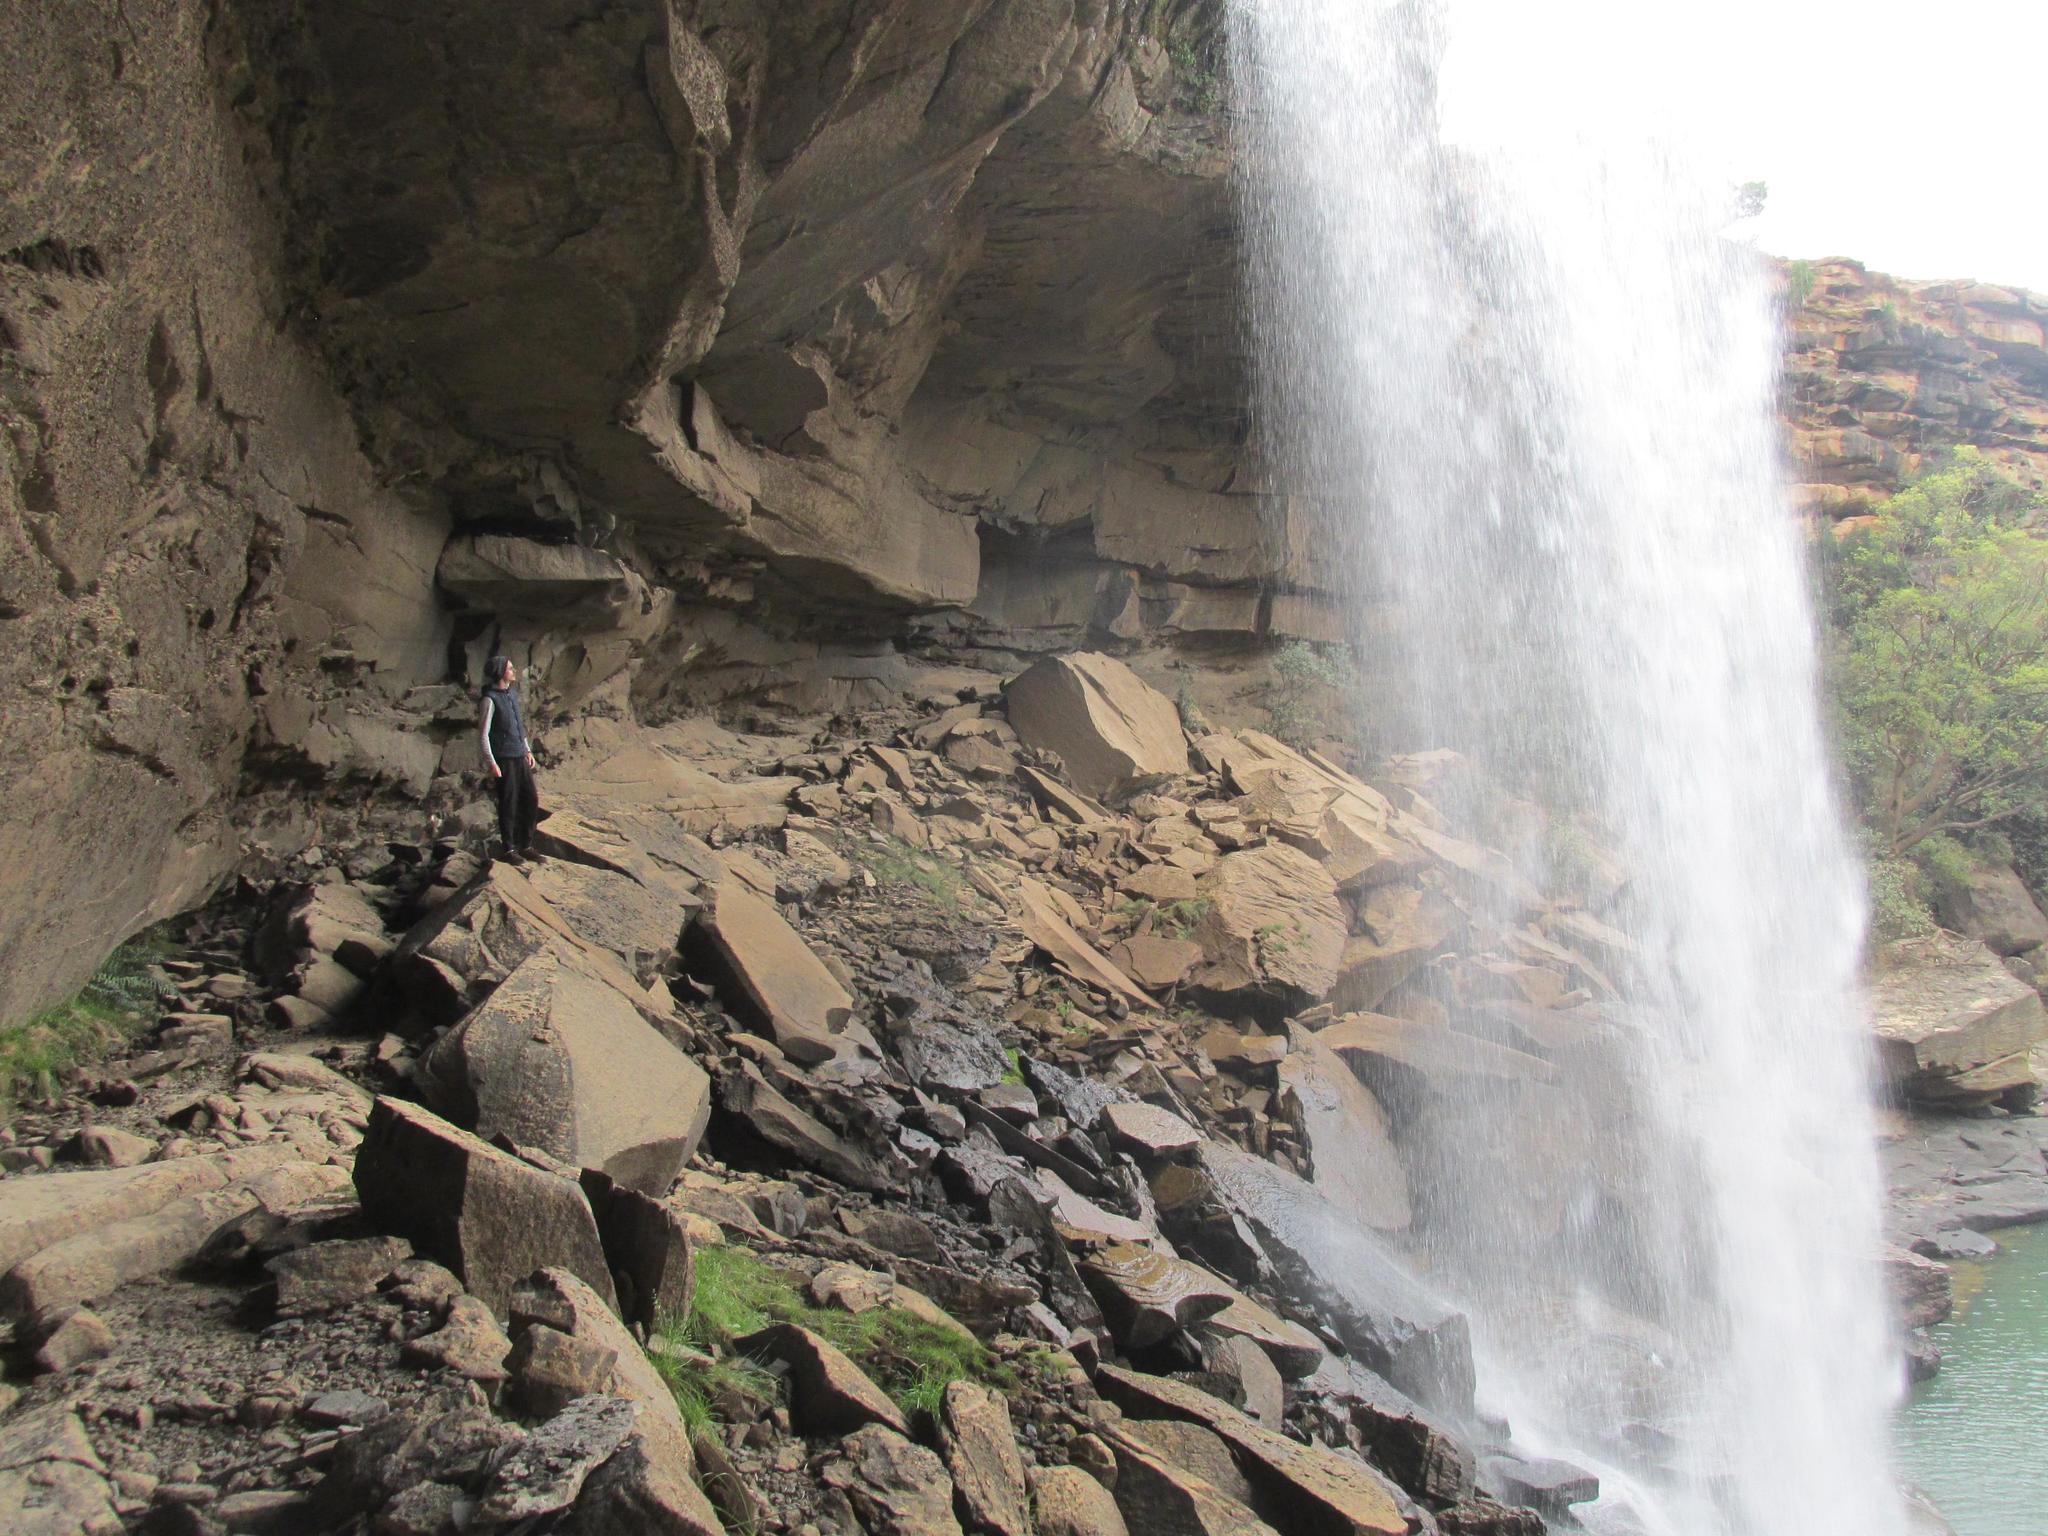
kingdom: Plantae
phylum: Tracheophyta
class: Polypodiopsida
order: Polypodiales
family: Pteridaceae
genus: Adiantum
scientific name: Adiantum poiretii
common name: Mexican maidenhair
